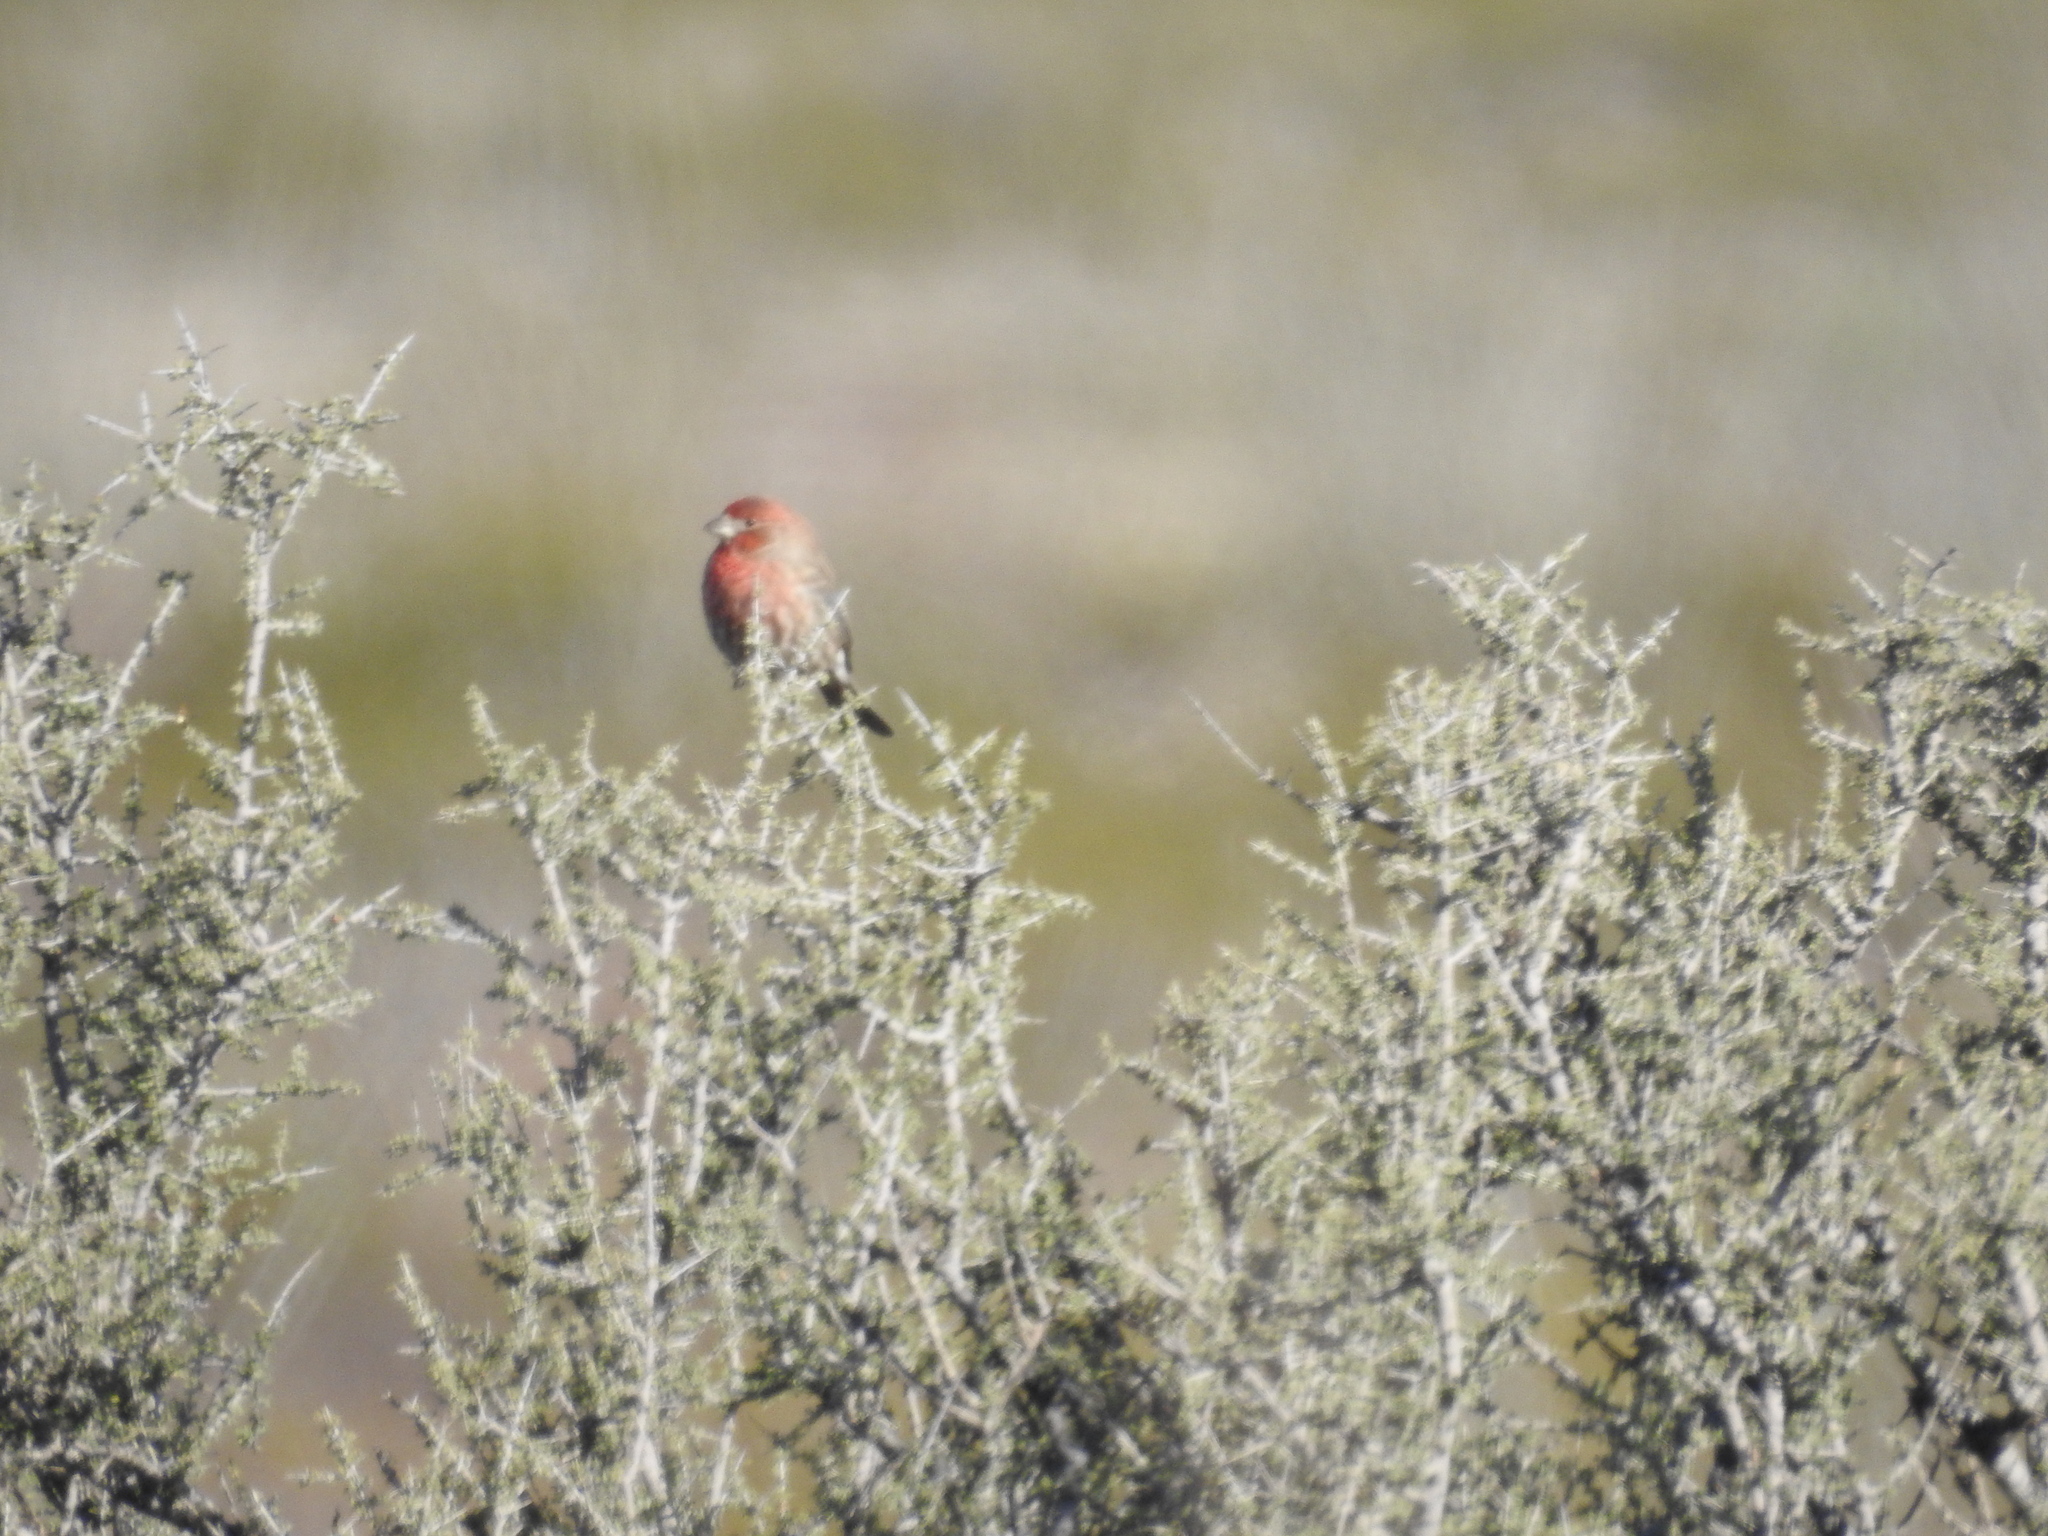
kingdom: Animalia
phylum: Chordata
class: Aves
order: Passeriformes
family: Fringillidae
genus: Haemorhous
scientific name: Haemorhous mexicanus
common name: House finch
